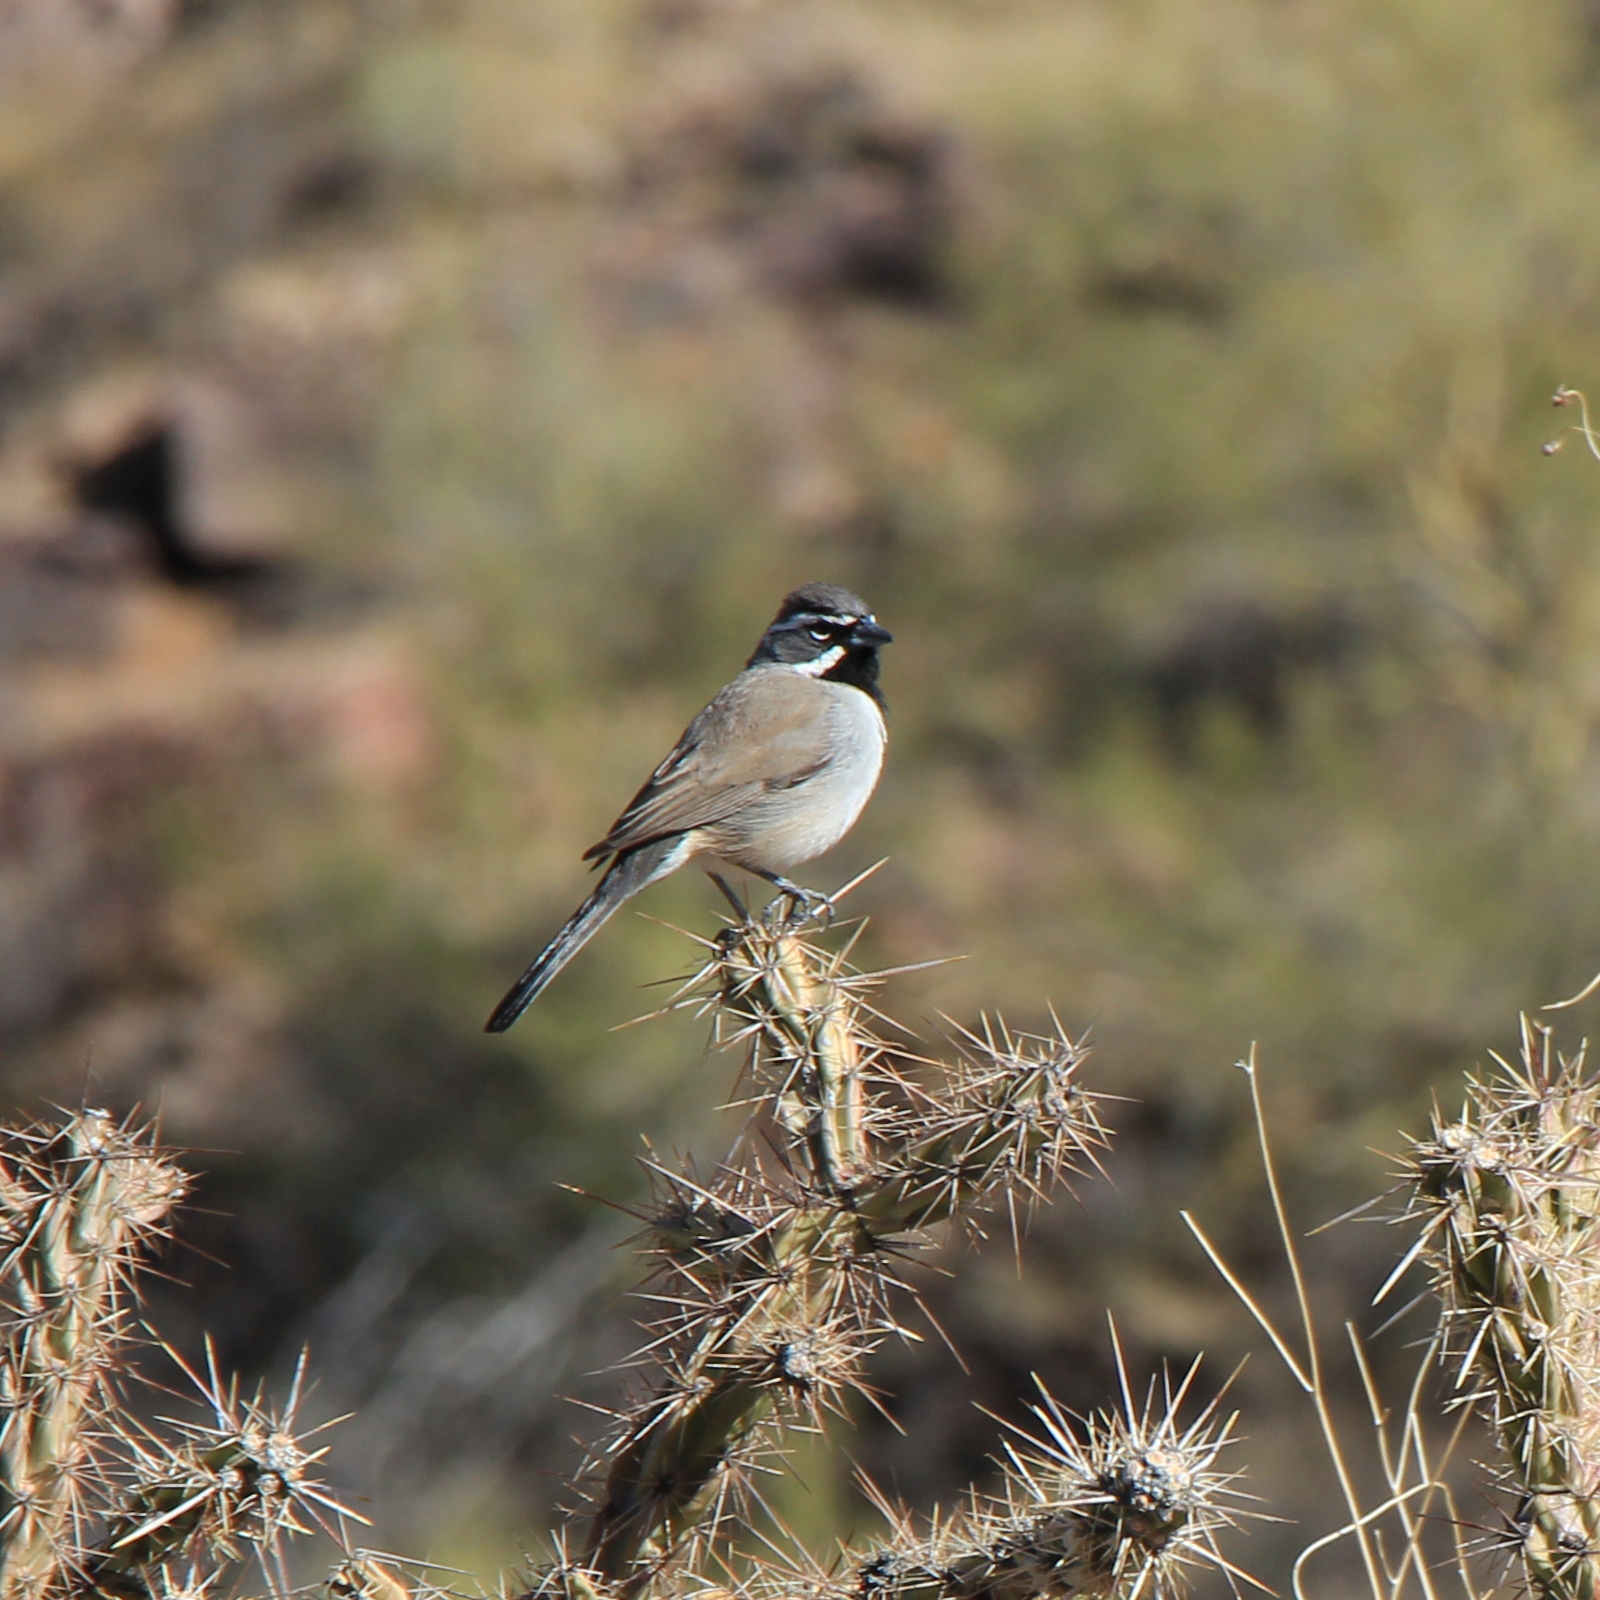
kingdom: Animalia
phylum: Chordata
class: Aves
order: Passeriformes
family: Passerellidae
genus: Amphispiza
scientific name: Amphispiza bilineata
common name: Black-throated sparrow
